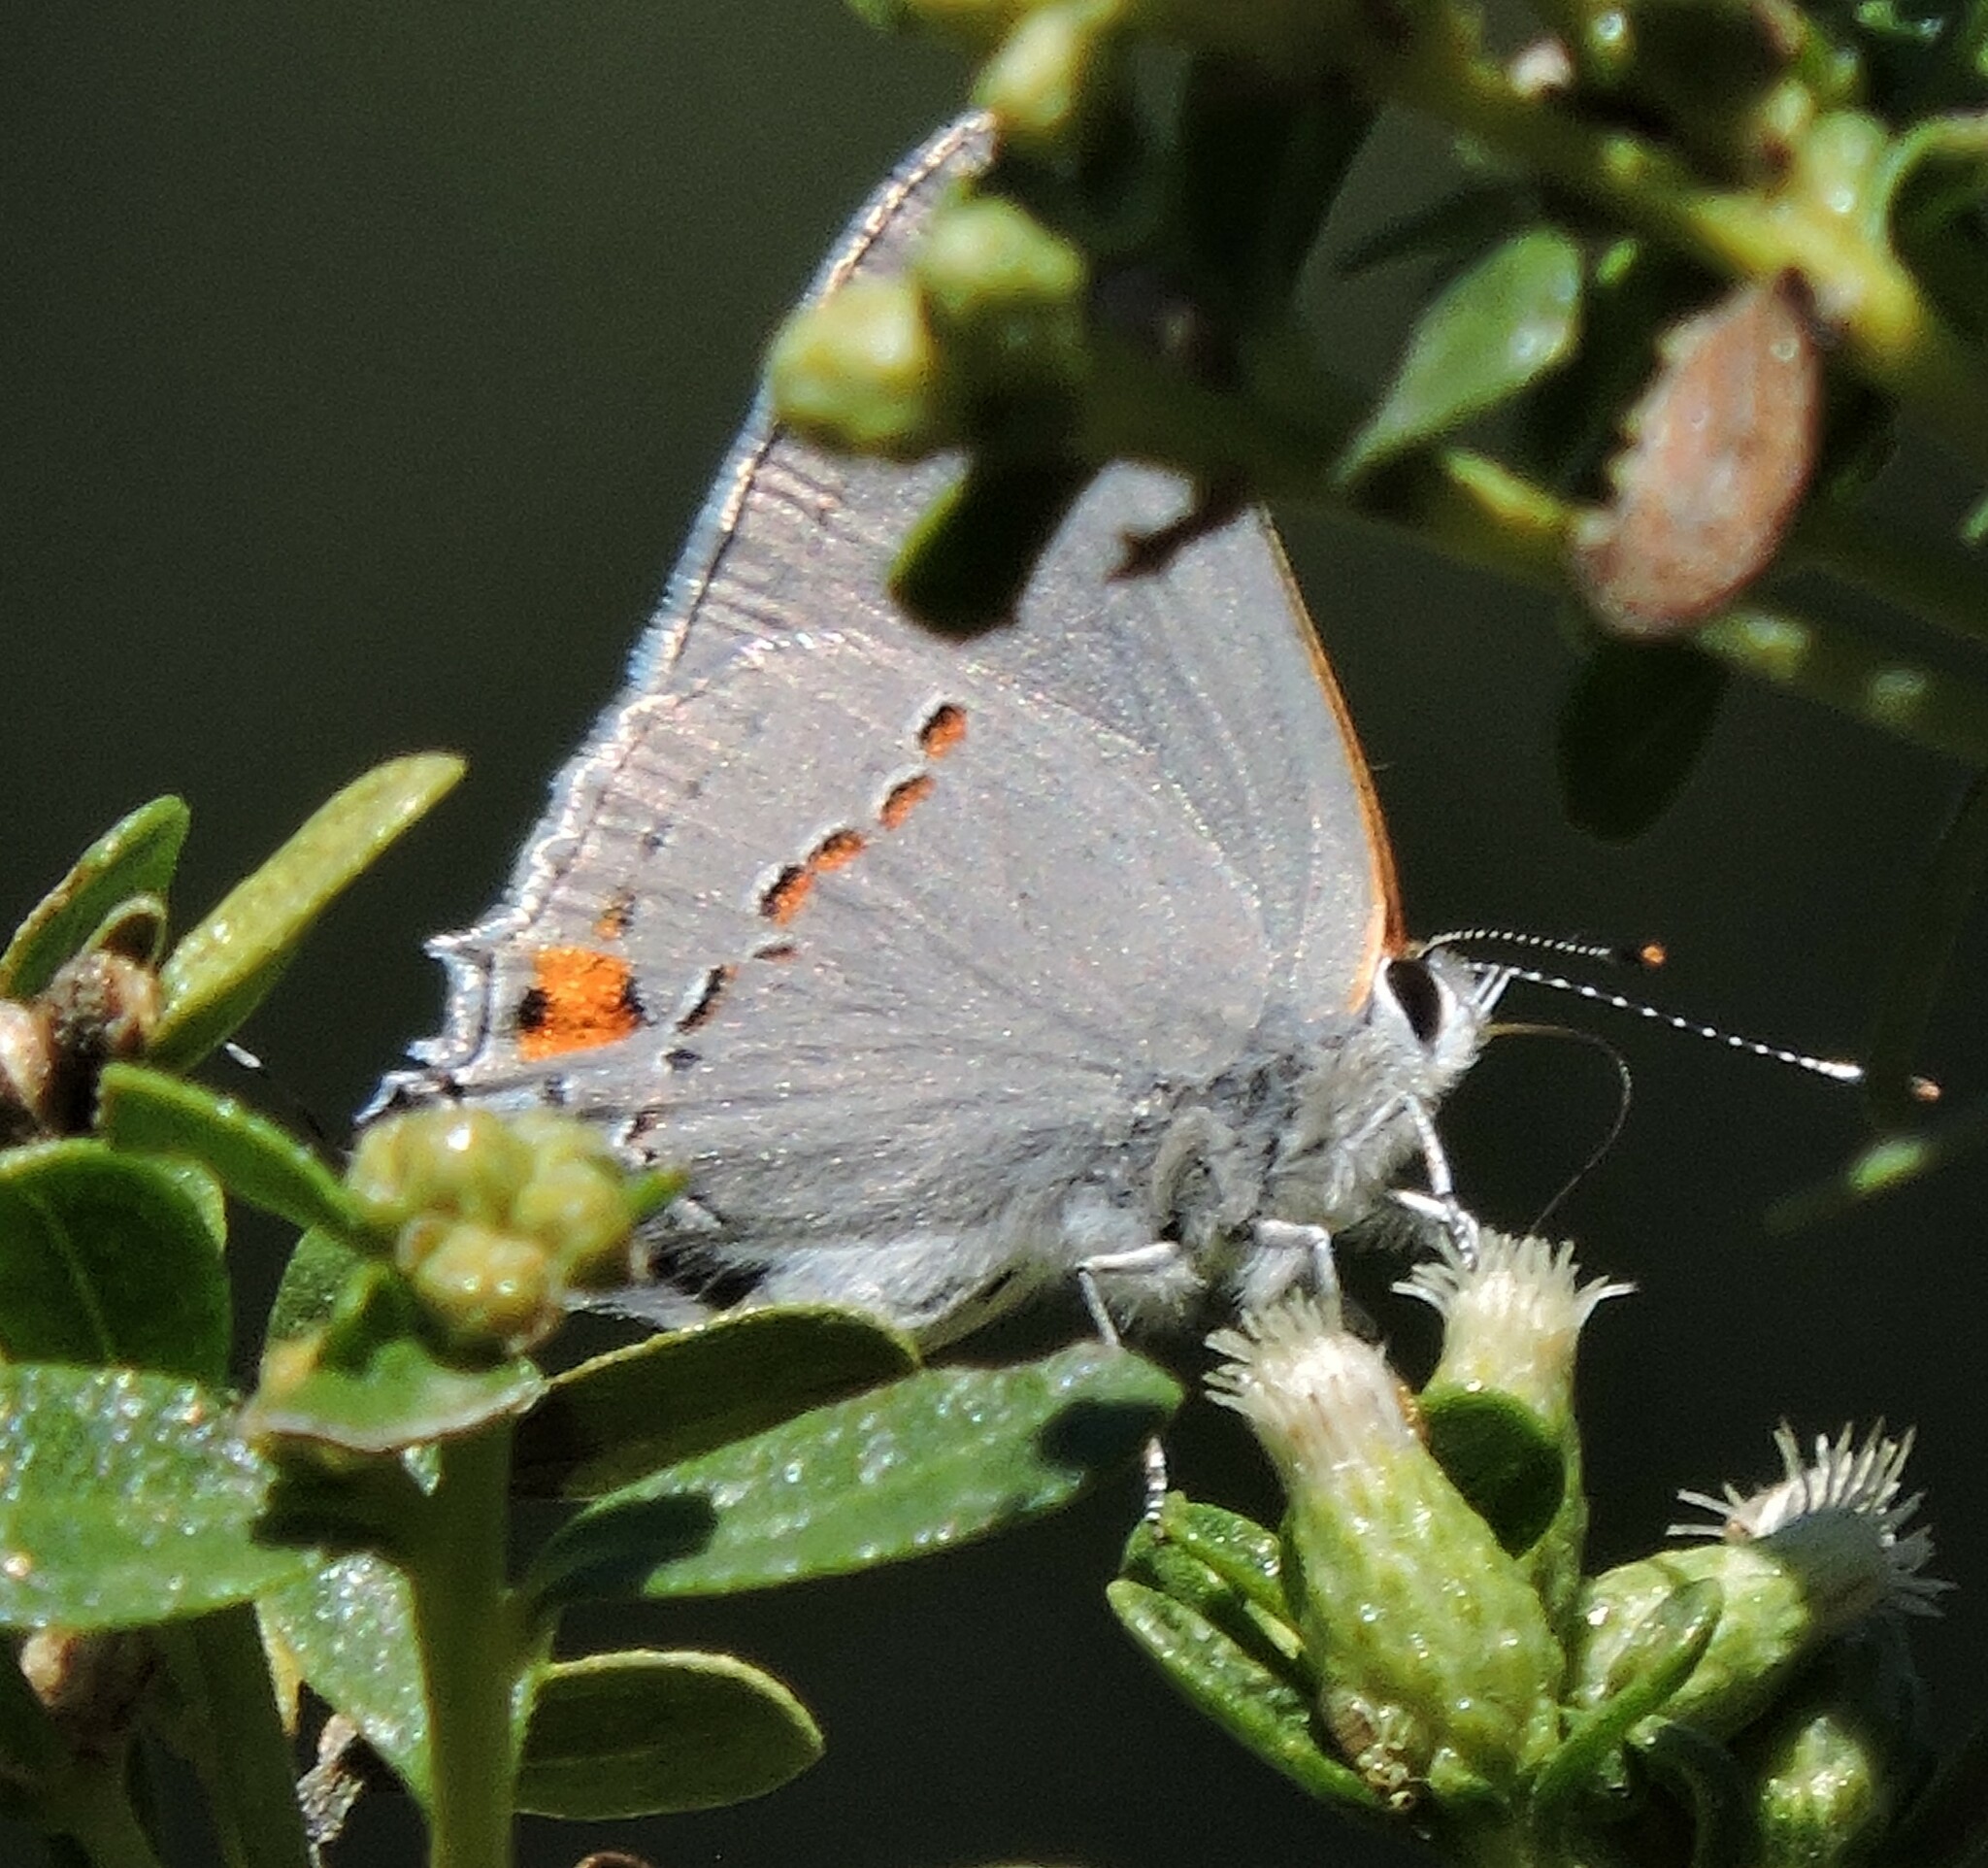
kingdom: Animalia
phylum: Arthropoda
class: Insecta
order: Lepidoptera
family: Lycaenidae
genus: Strymon
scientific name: Strymon melinus
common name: Gray hairstreak
